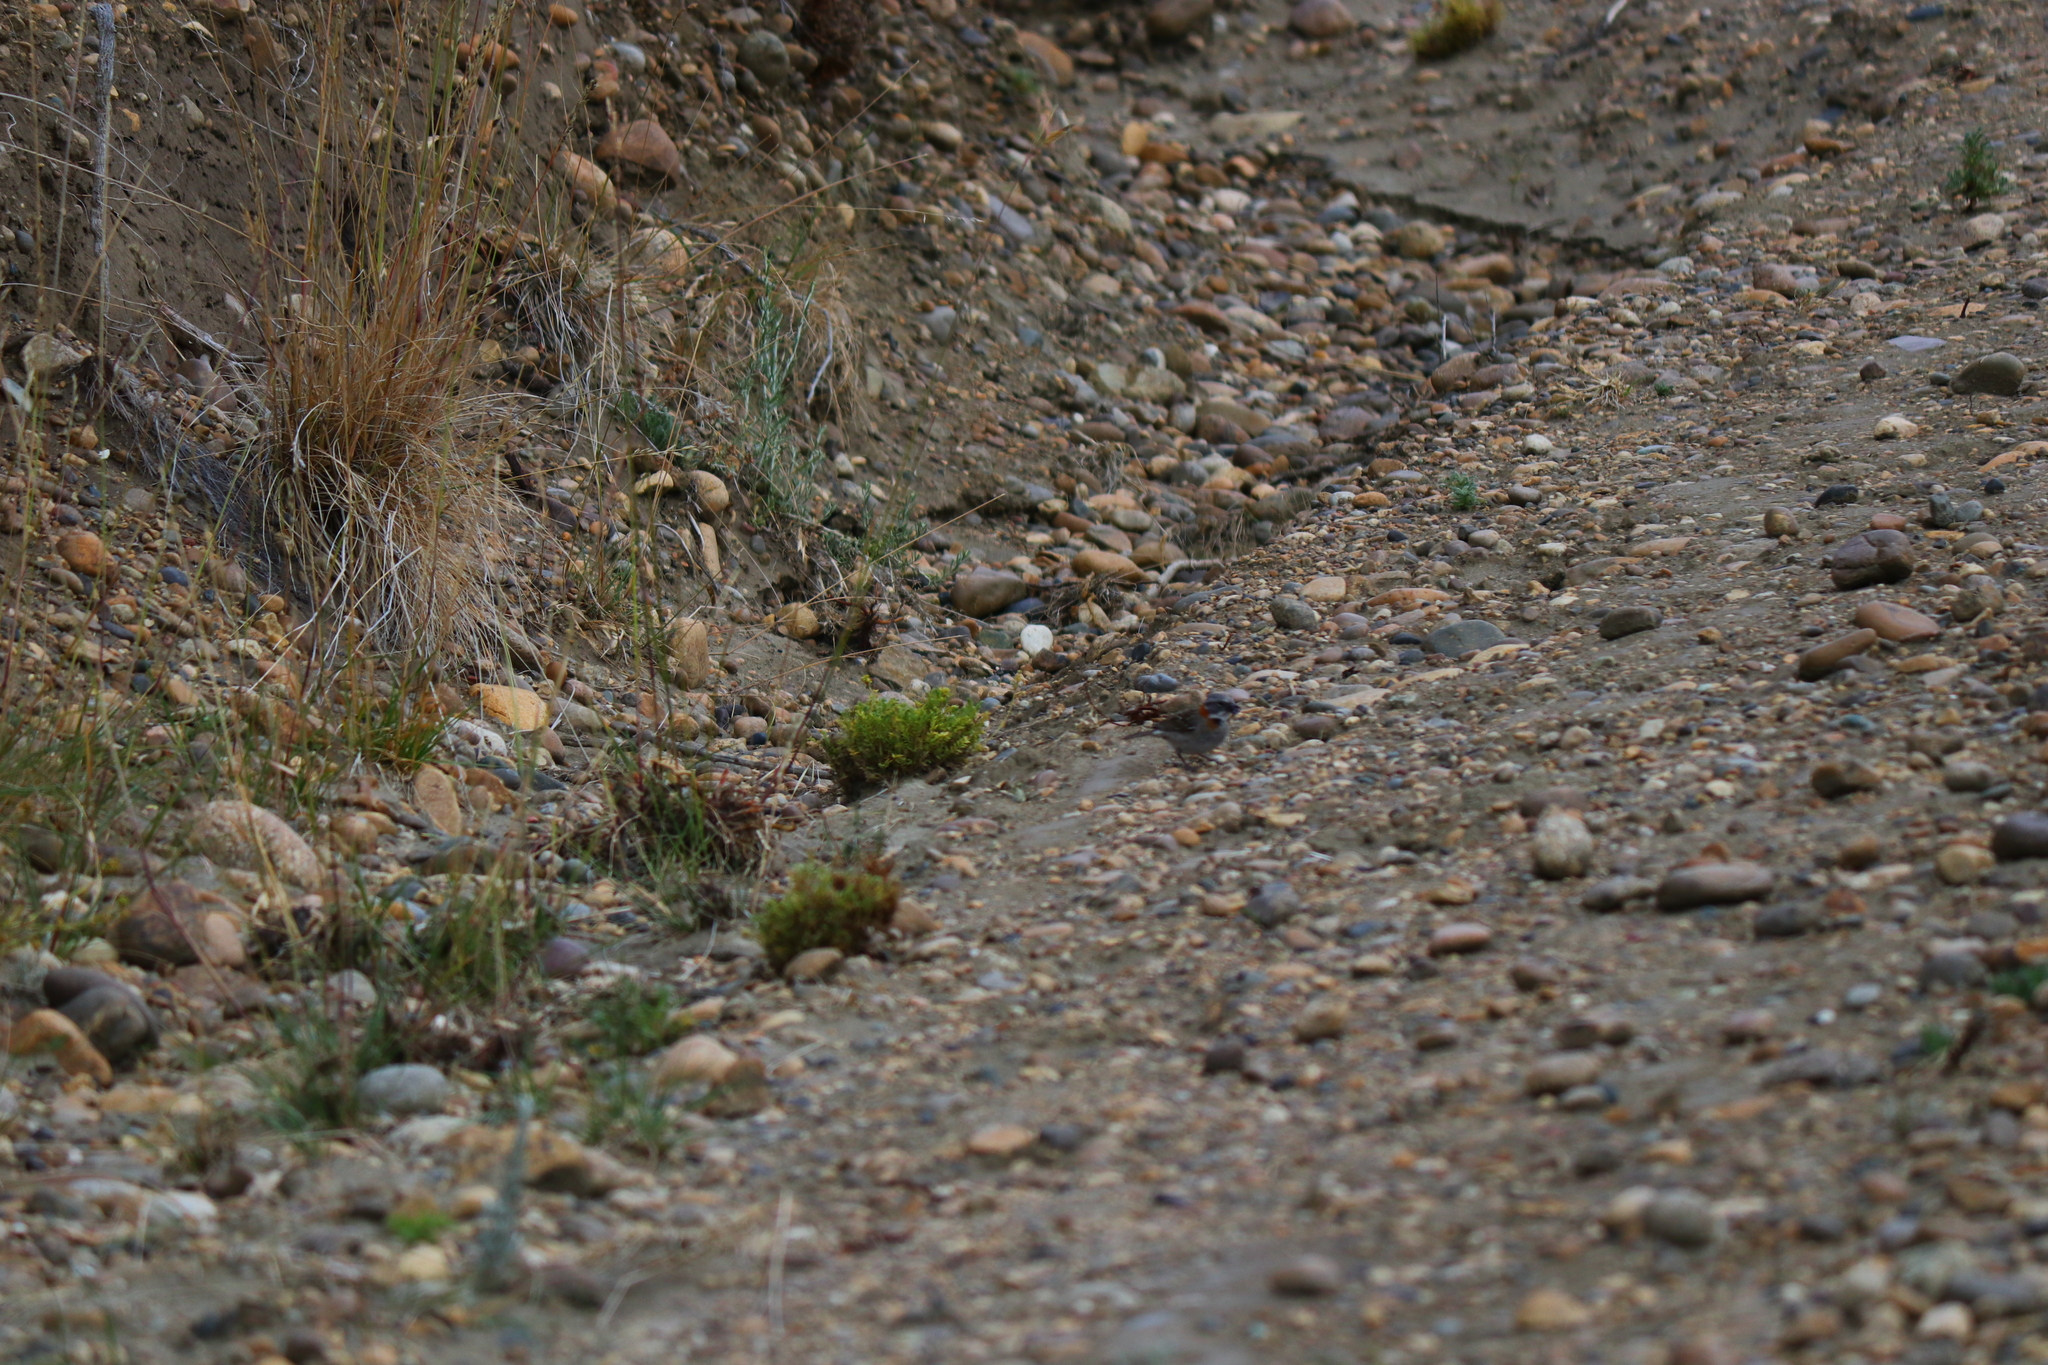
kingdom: Animalia
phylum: Chordata
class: Aves
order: Passeriformes
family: Passerellidae
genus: Zonotrichia
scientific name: Zonotrichia capensis
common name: Rufous-collared sparrow
